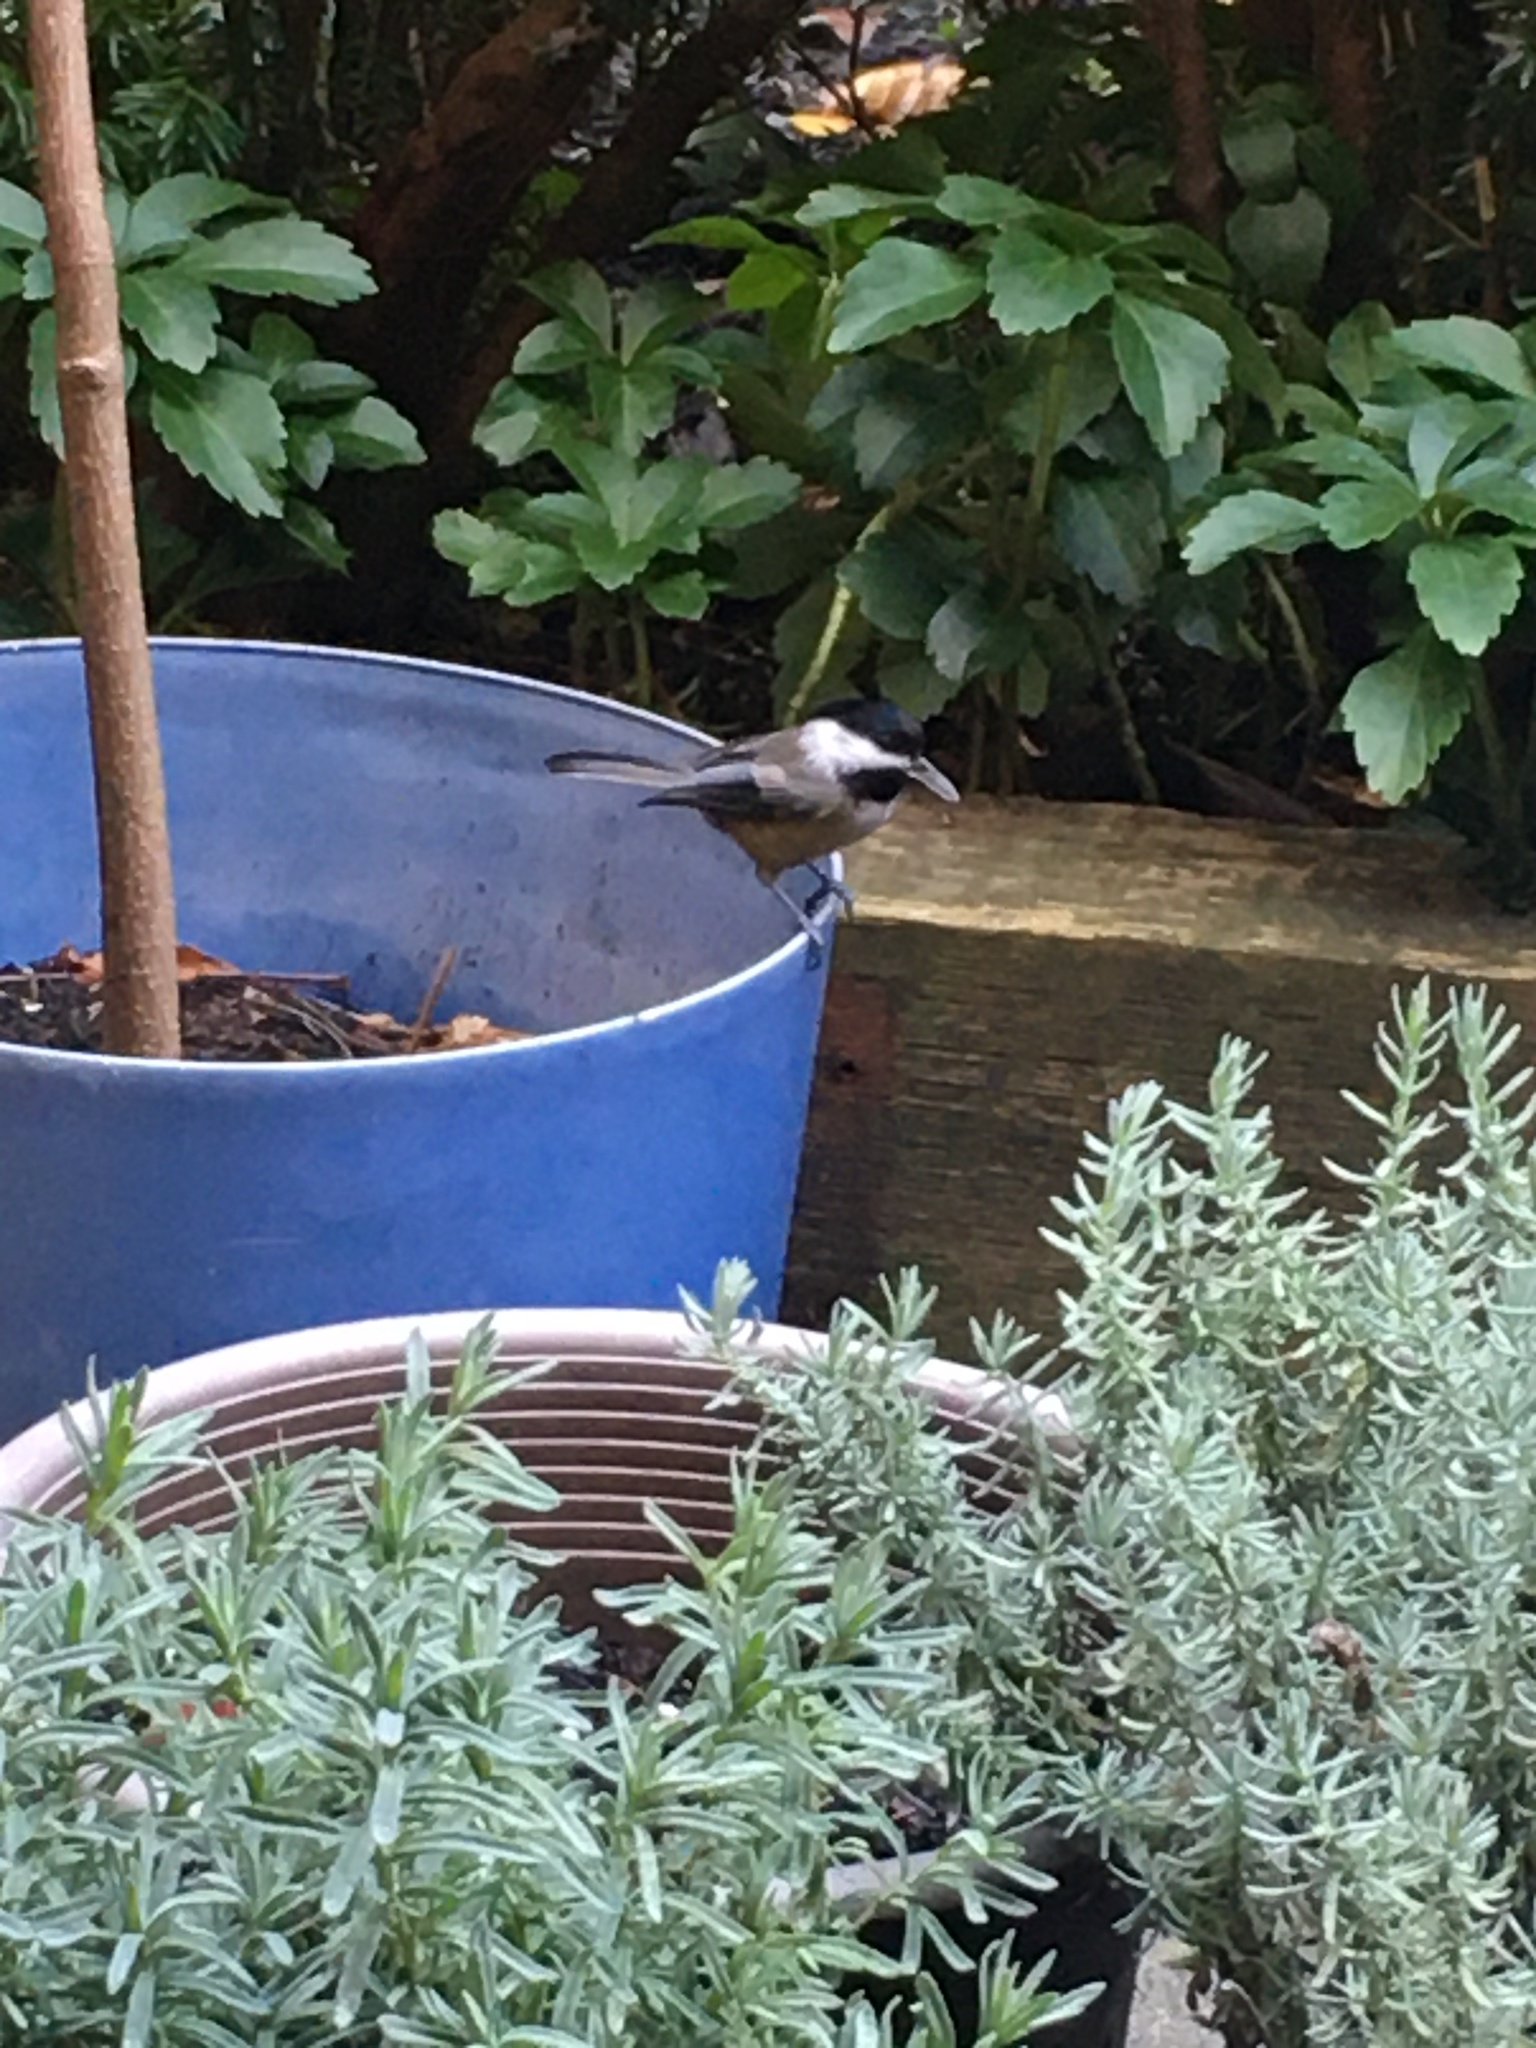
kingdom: Animalia
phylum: Chordata
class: Aves
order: Passeriformes
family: Paridae
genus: Poecile
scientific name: Poecile atricapillus
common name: Black-capped chickadee
